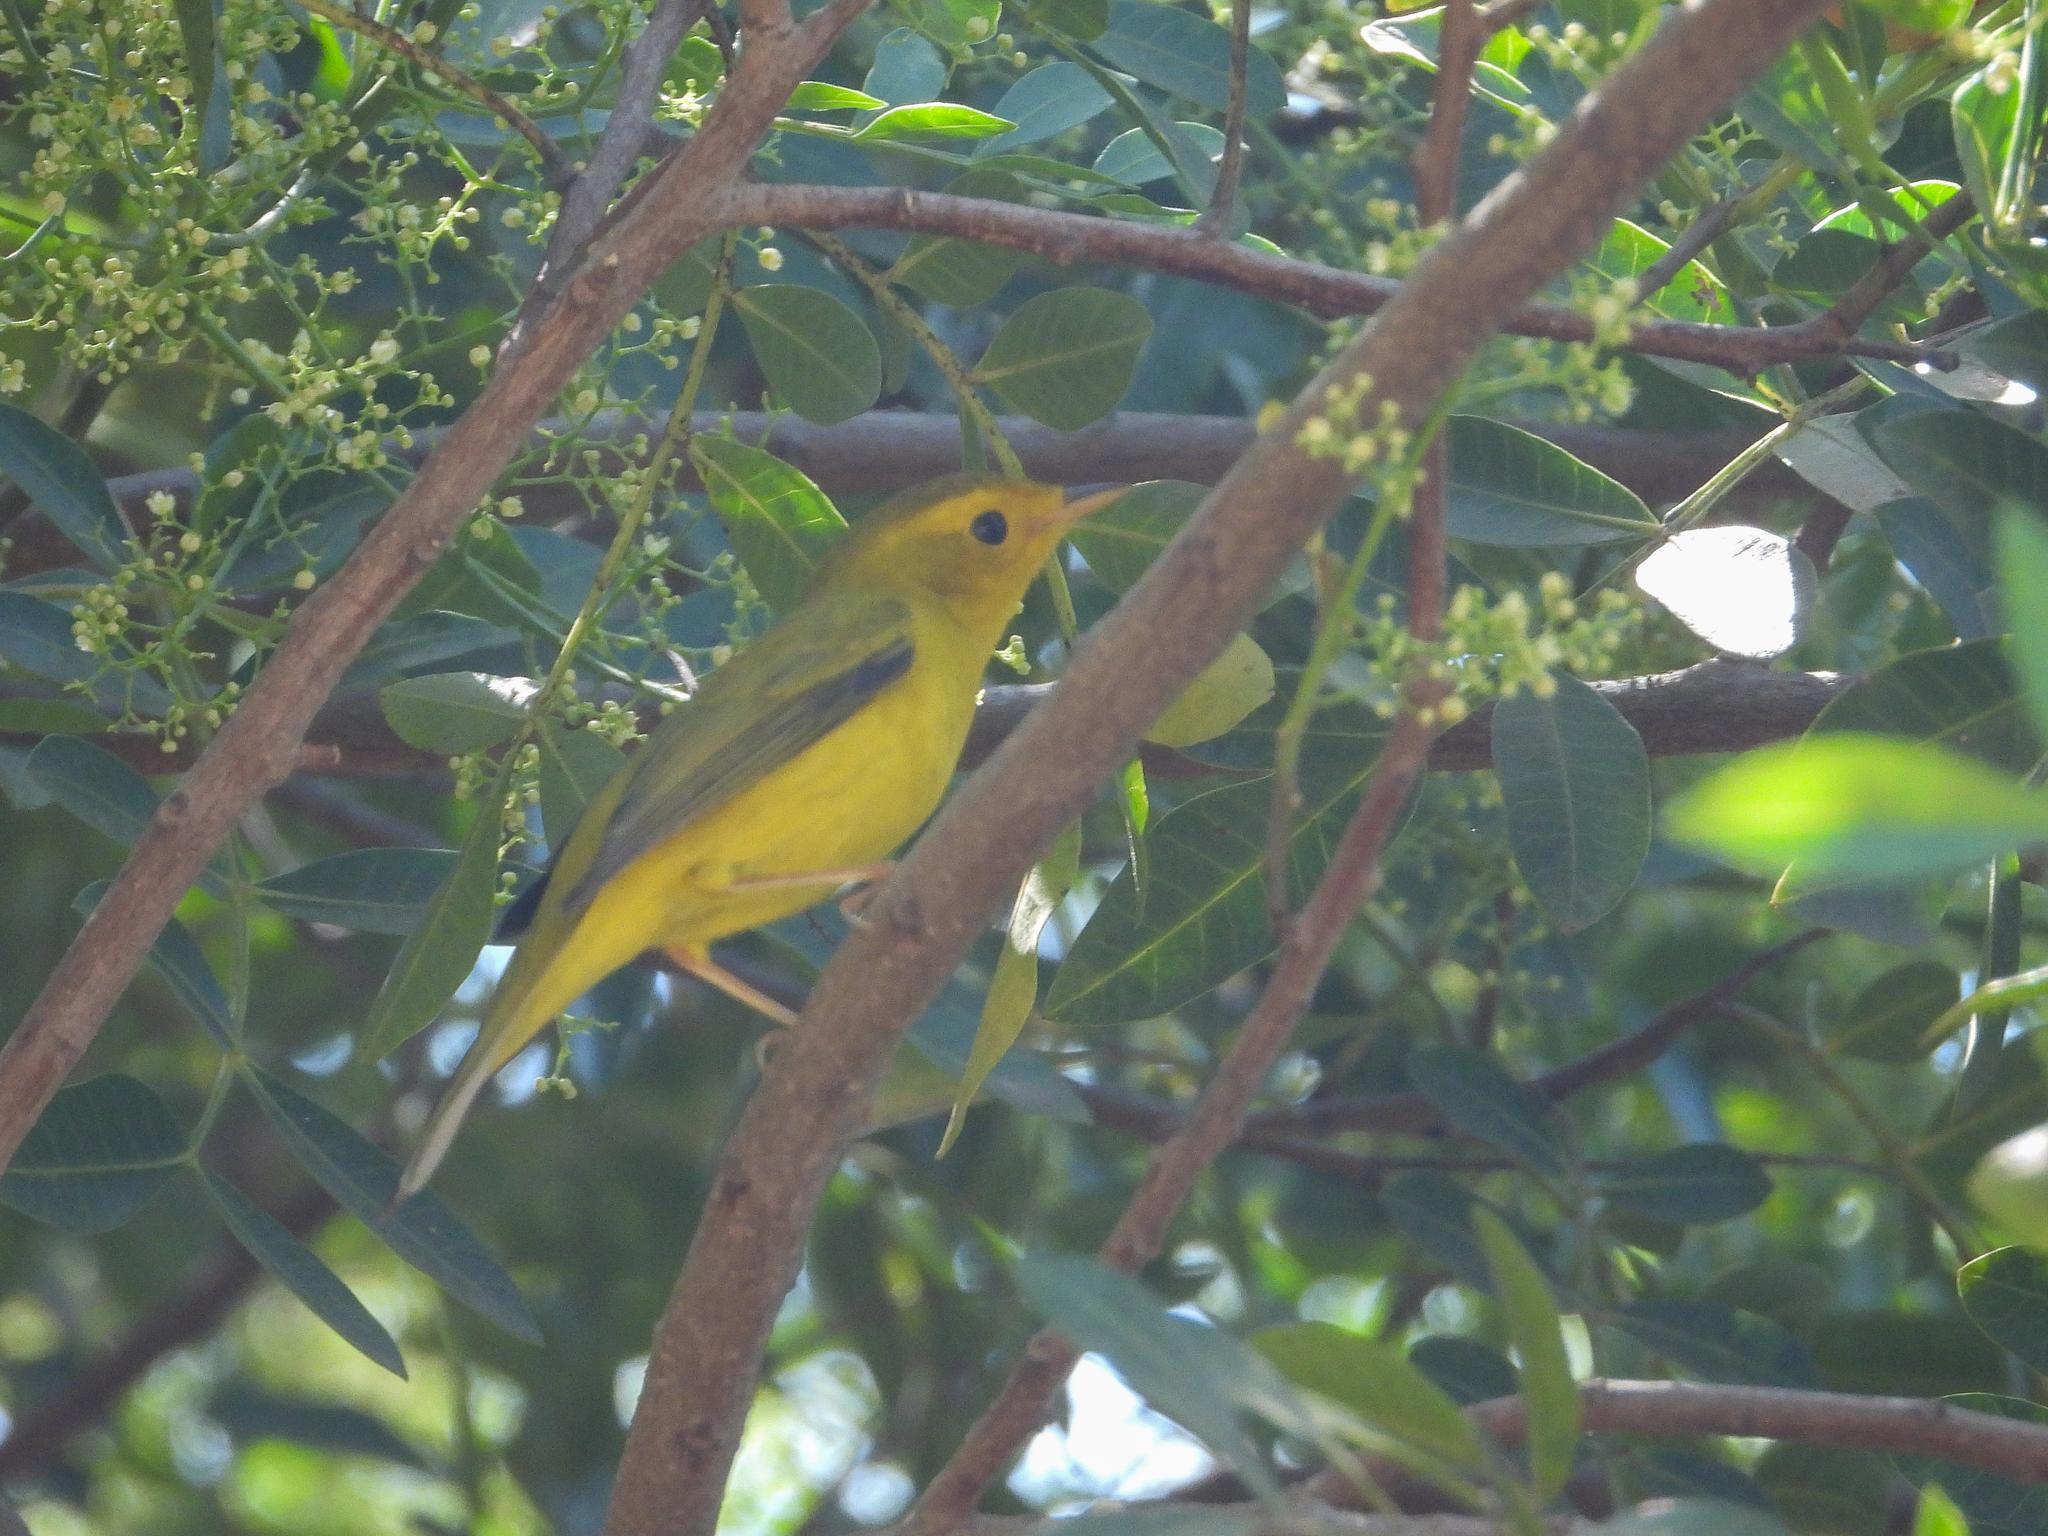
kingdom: Animalia
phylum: Chordata
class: Aves
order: Passeriformes
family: Parulidae
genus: Cardellina
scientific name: Cardellina pusilla
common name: Wilson's warbler
